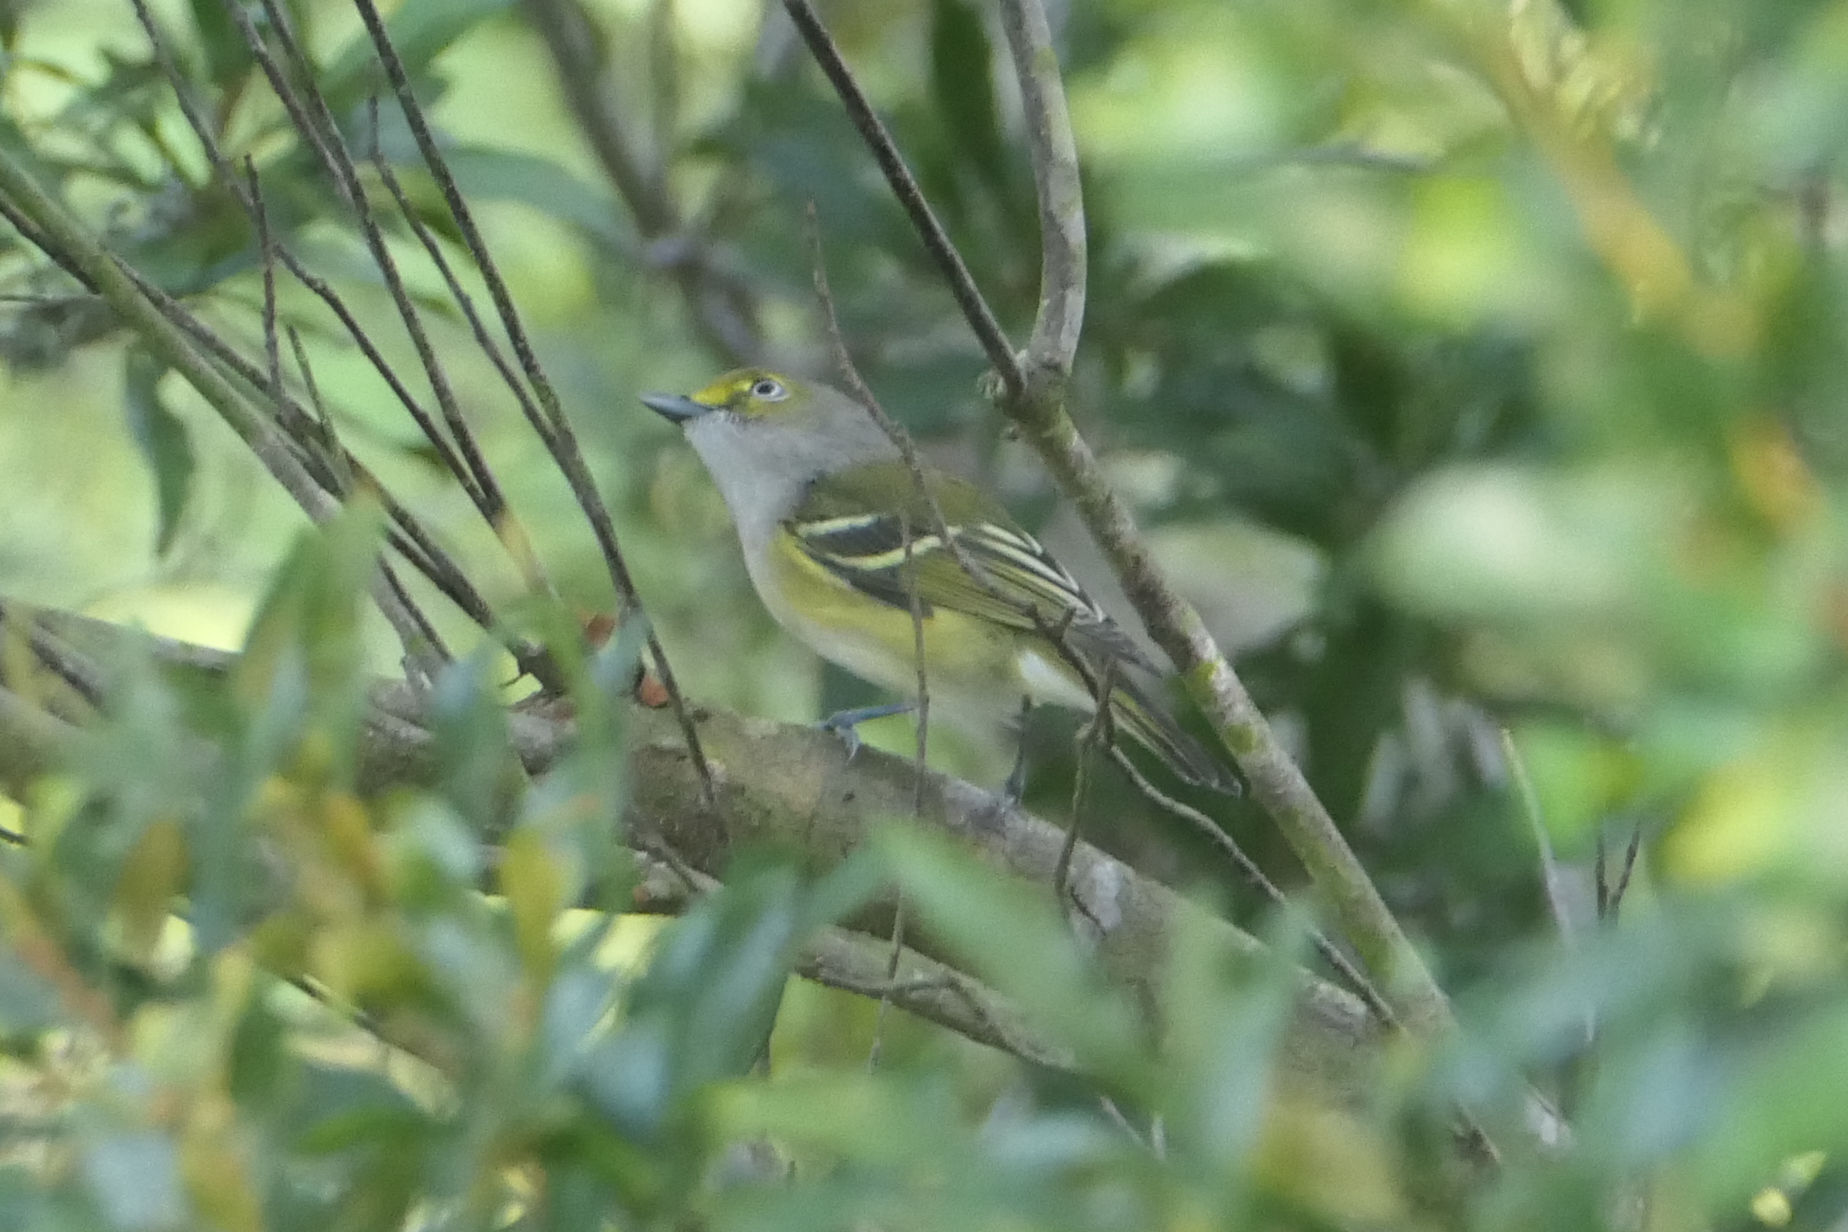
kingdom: Animalia
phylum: Chordata
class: Aves
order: Passeriformes
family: Vireonidae
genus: Vireo
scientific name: Vireo griseus
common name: White-eyed vireo
